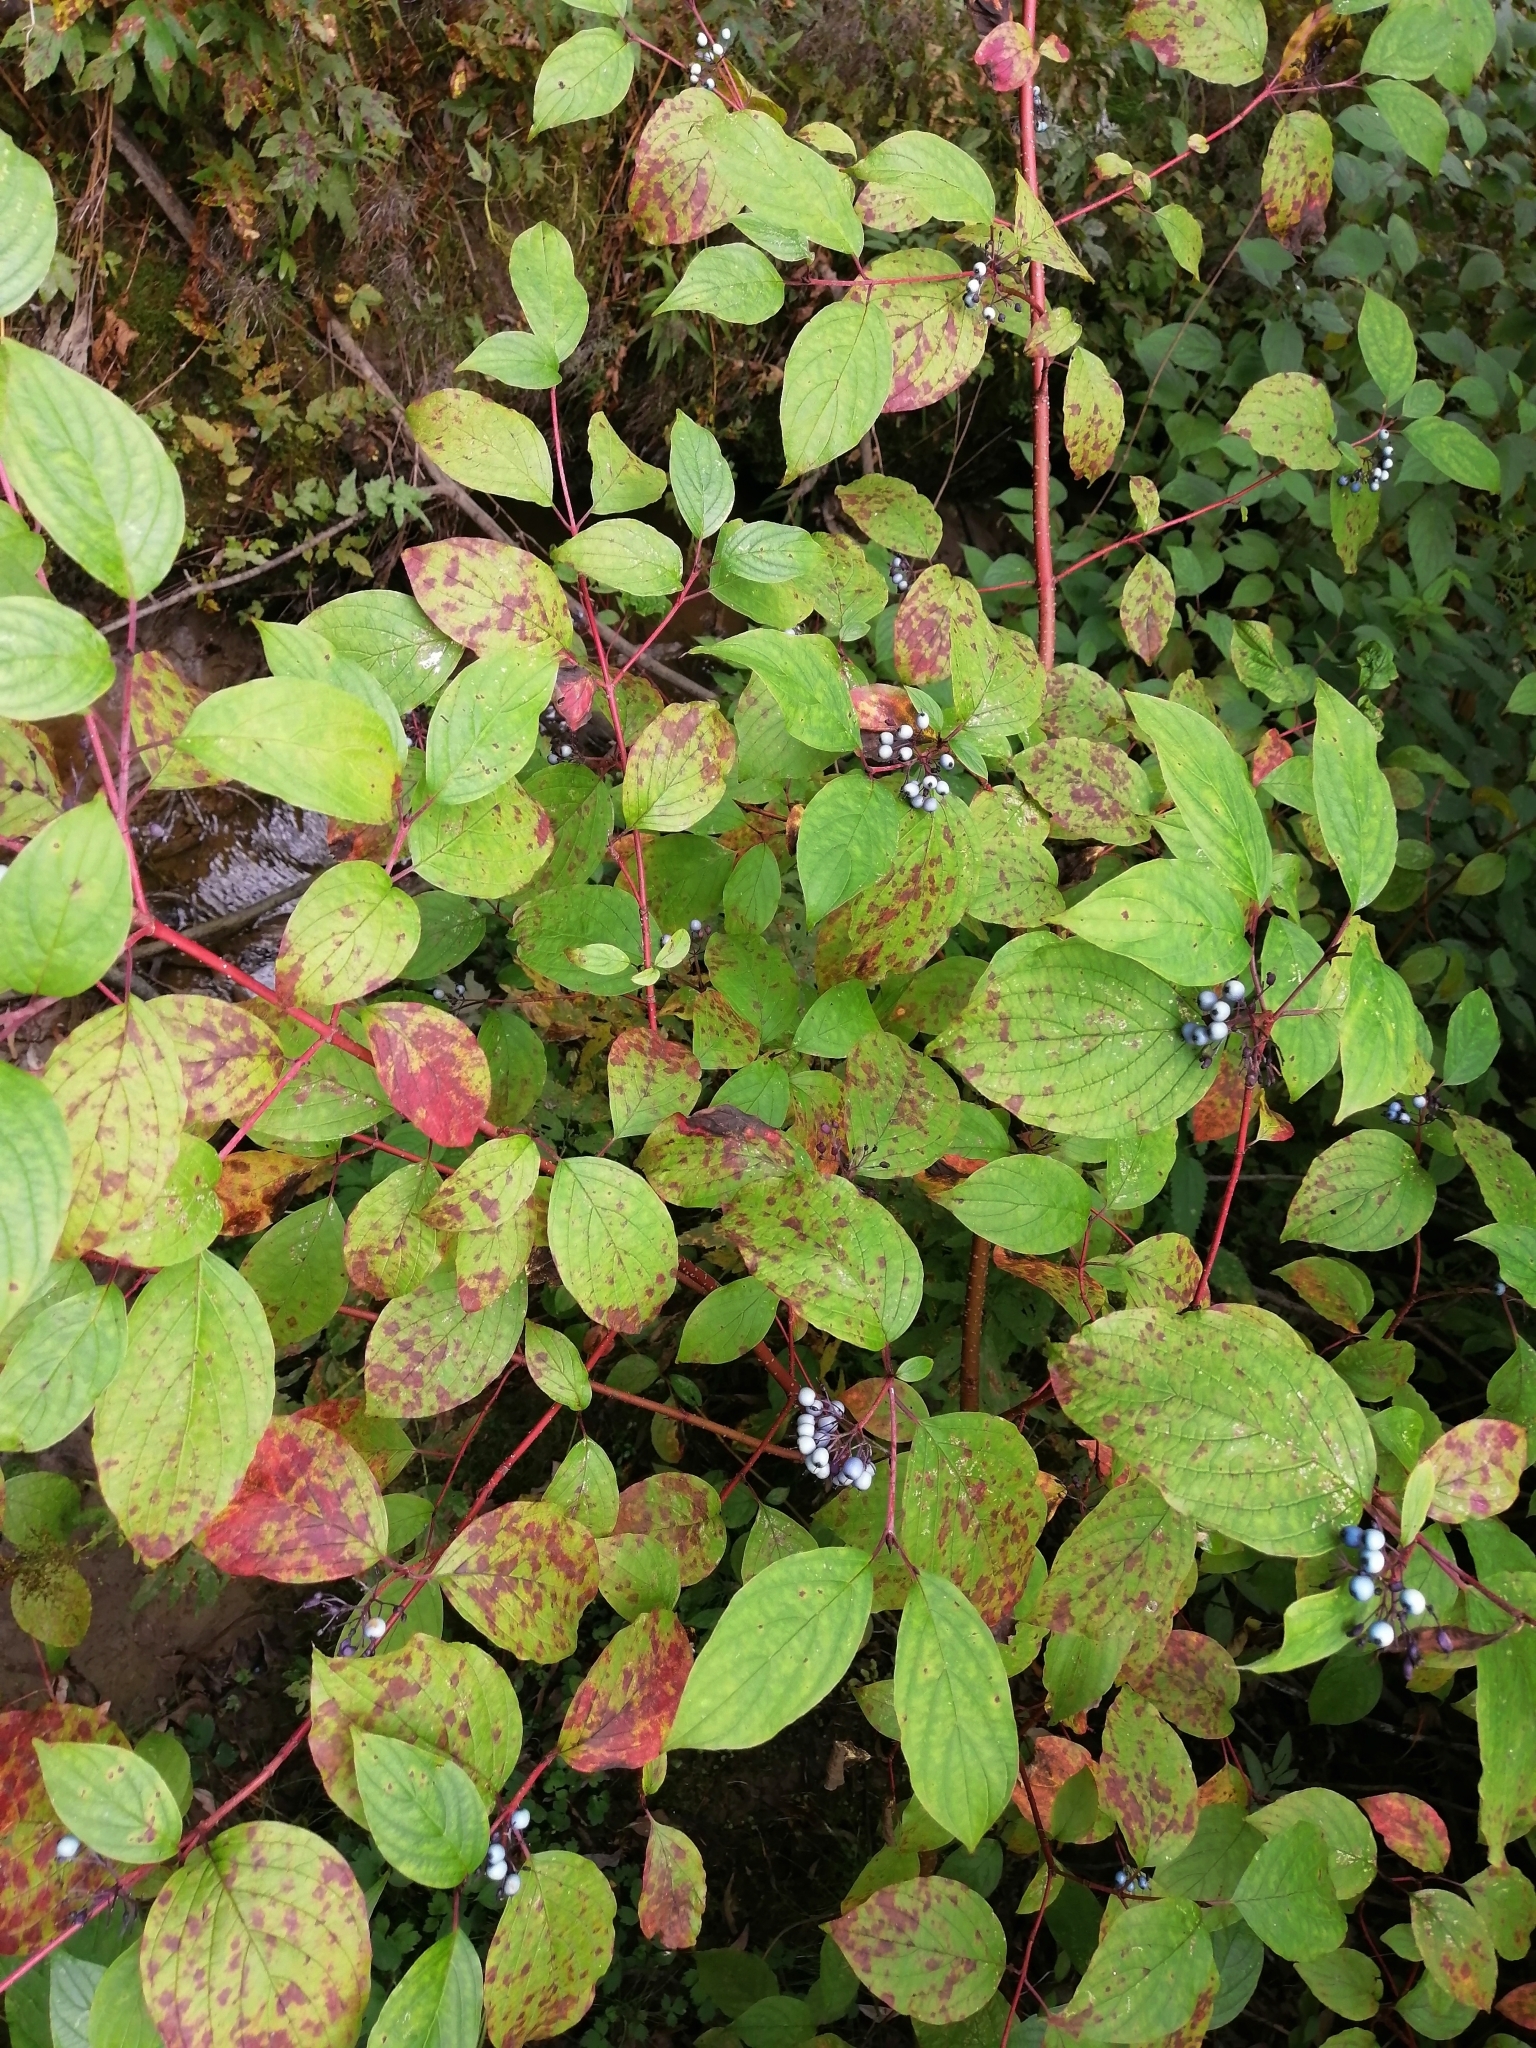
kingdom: Plantae
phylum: Tracheophyta
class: Magnoliopsida
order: Cornales
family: Cornaceae
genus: Cornus
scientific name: Cornus alba
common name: White dogwood
